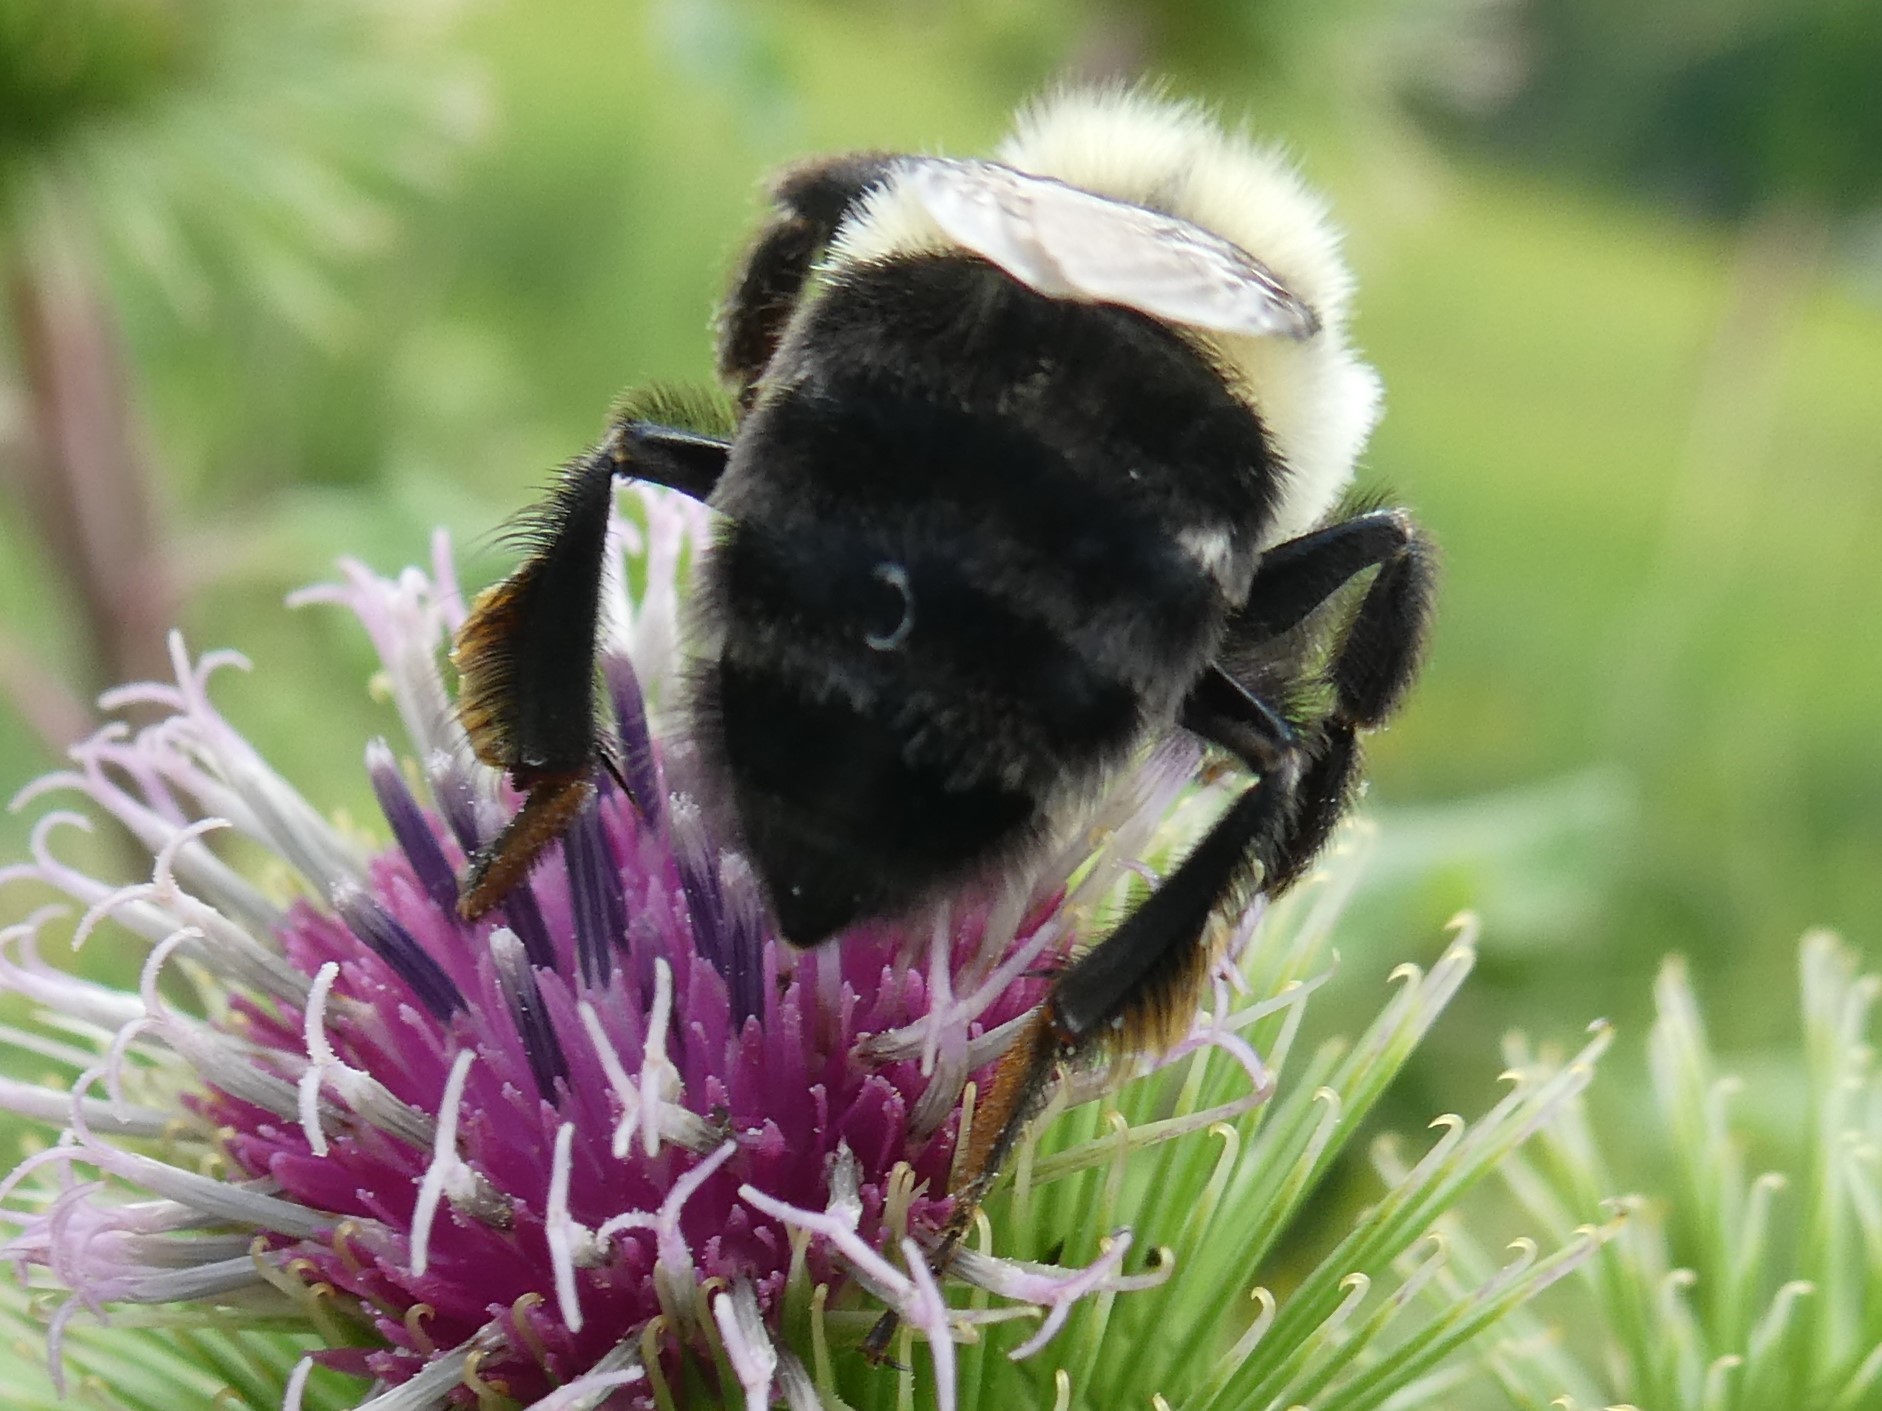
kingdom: Animalia
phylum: Arthropoda
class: Insecta
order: Hymenoptera
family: Apidae
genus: Bombus
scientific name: Bombus impatiens
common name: Common eastern bumble bee
